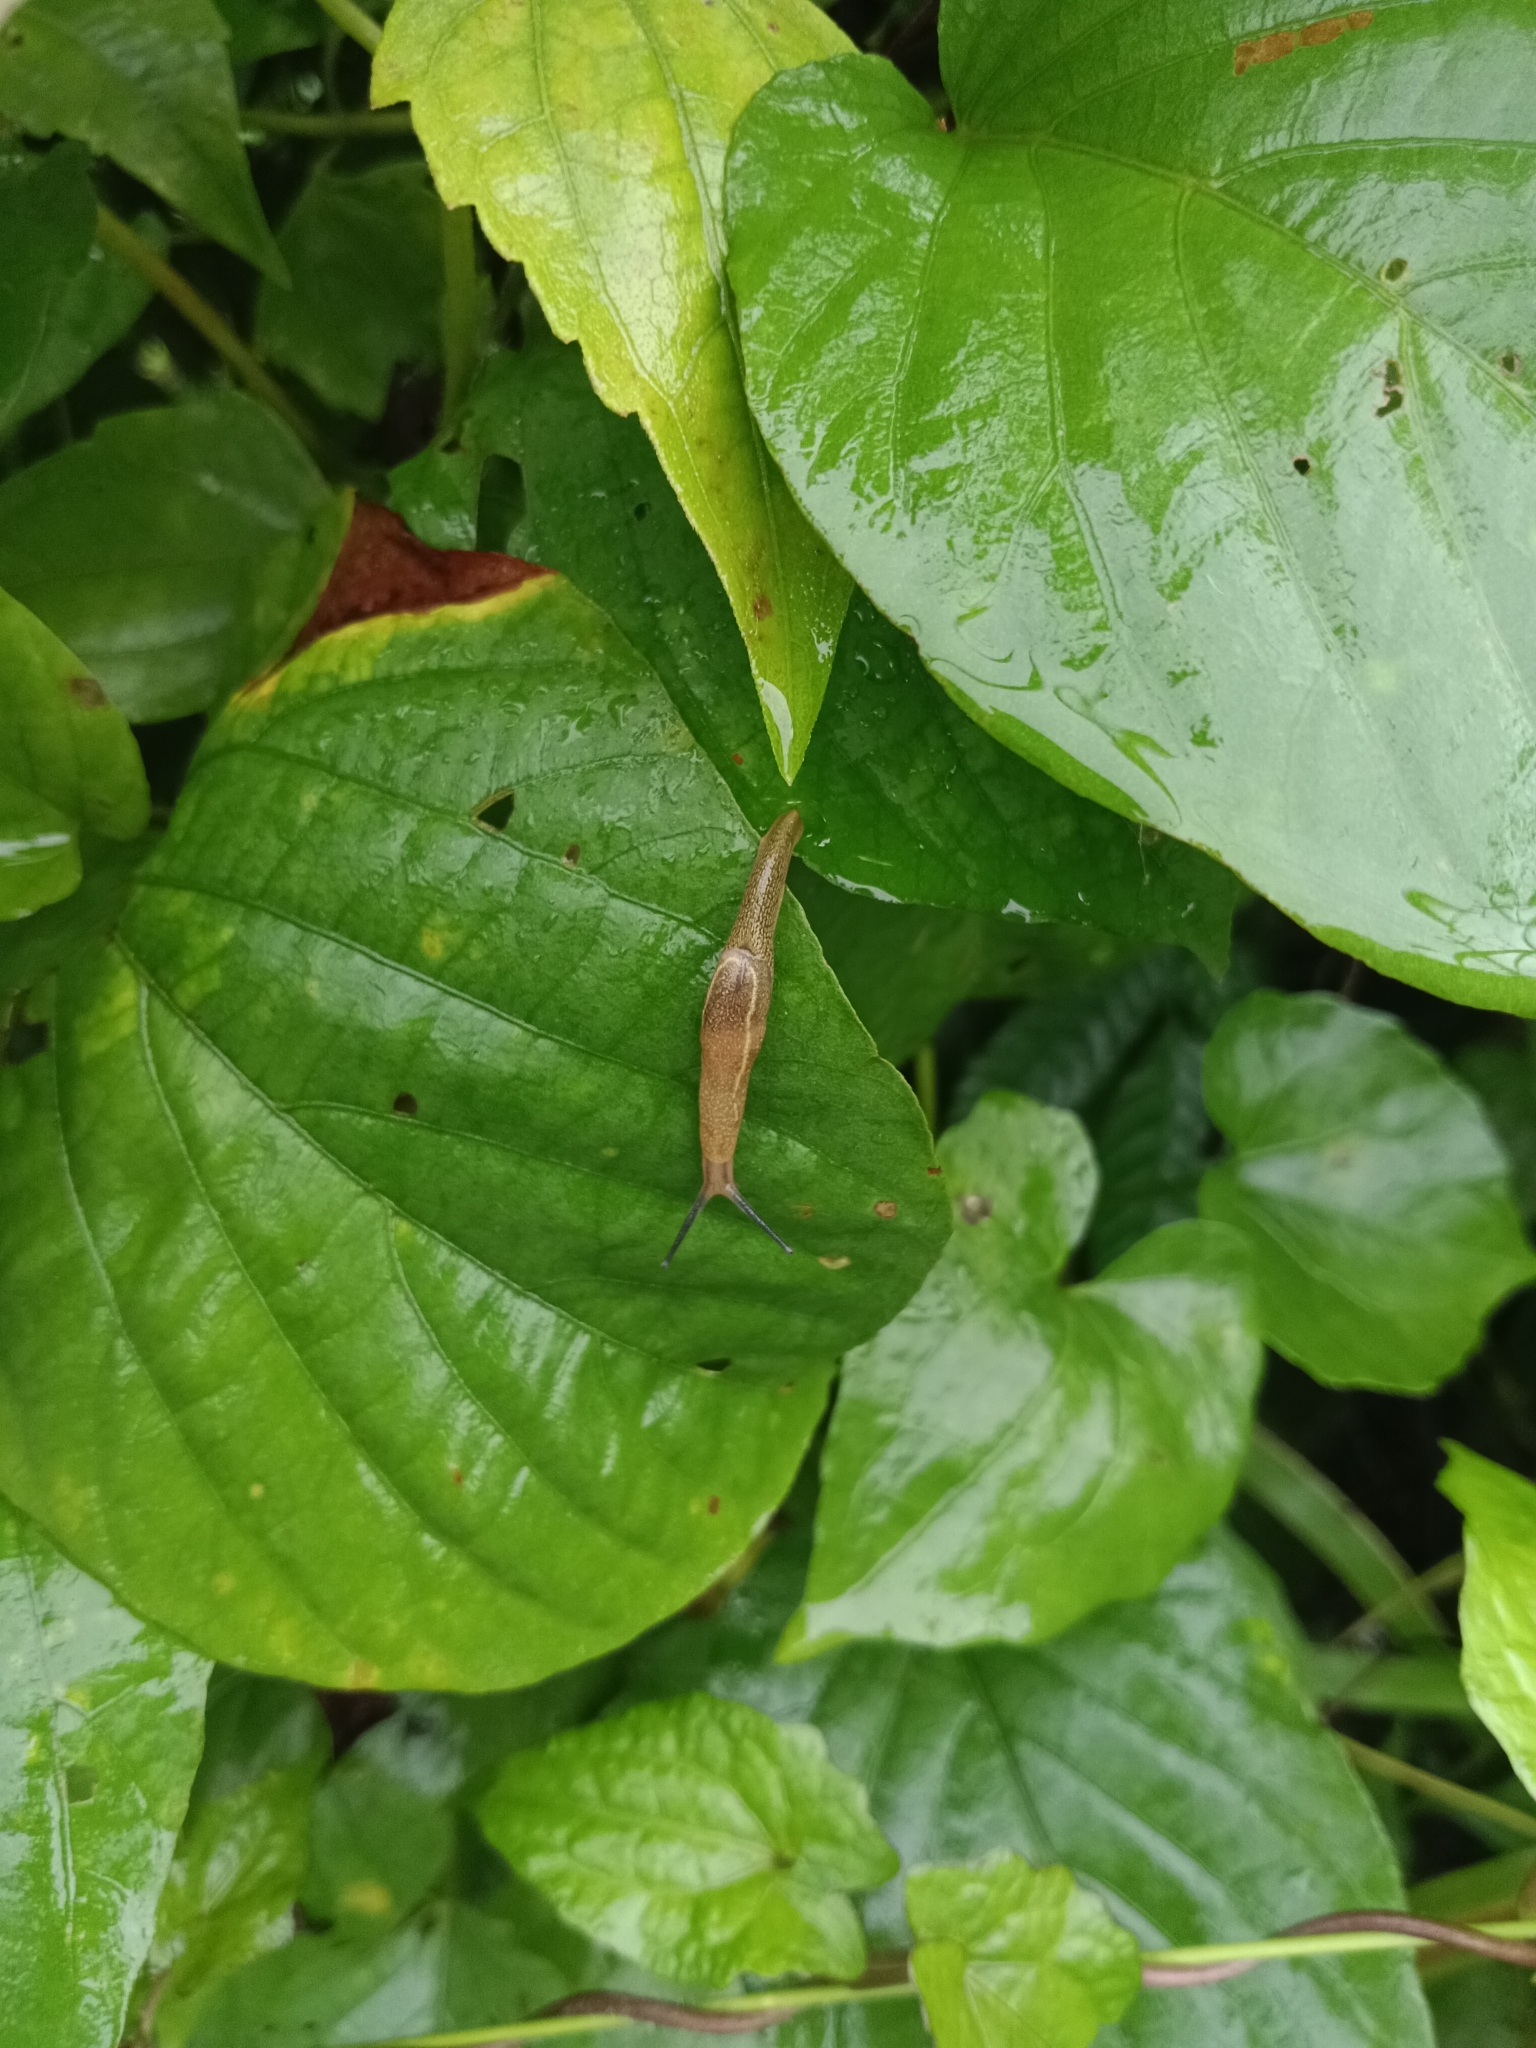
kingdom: Animalia
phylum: Mollusca
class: Gastropoda
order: Stylommatophora
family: Ariophantidae
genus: Mariaella
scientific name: Mariaella dussumieri
